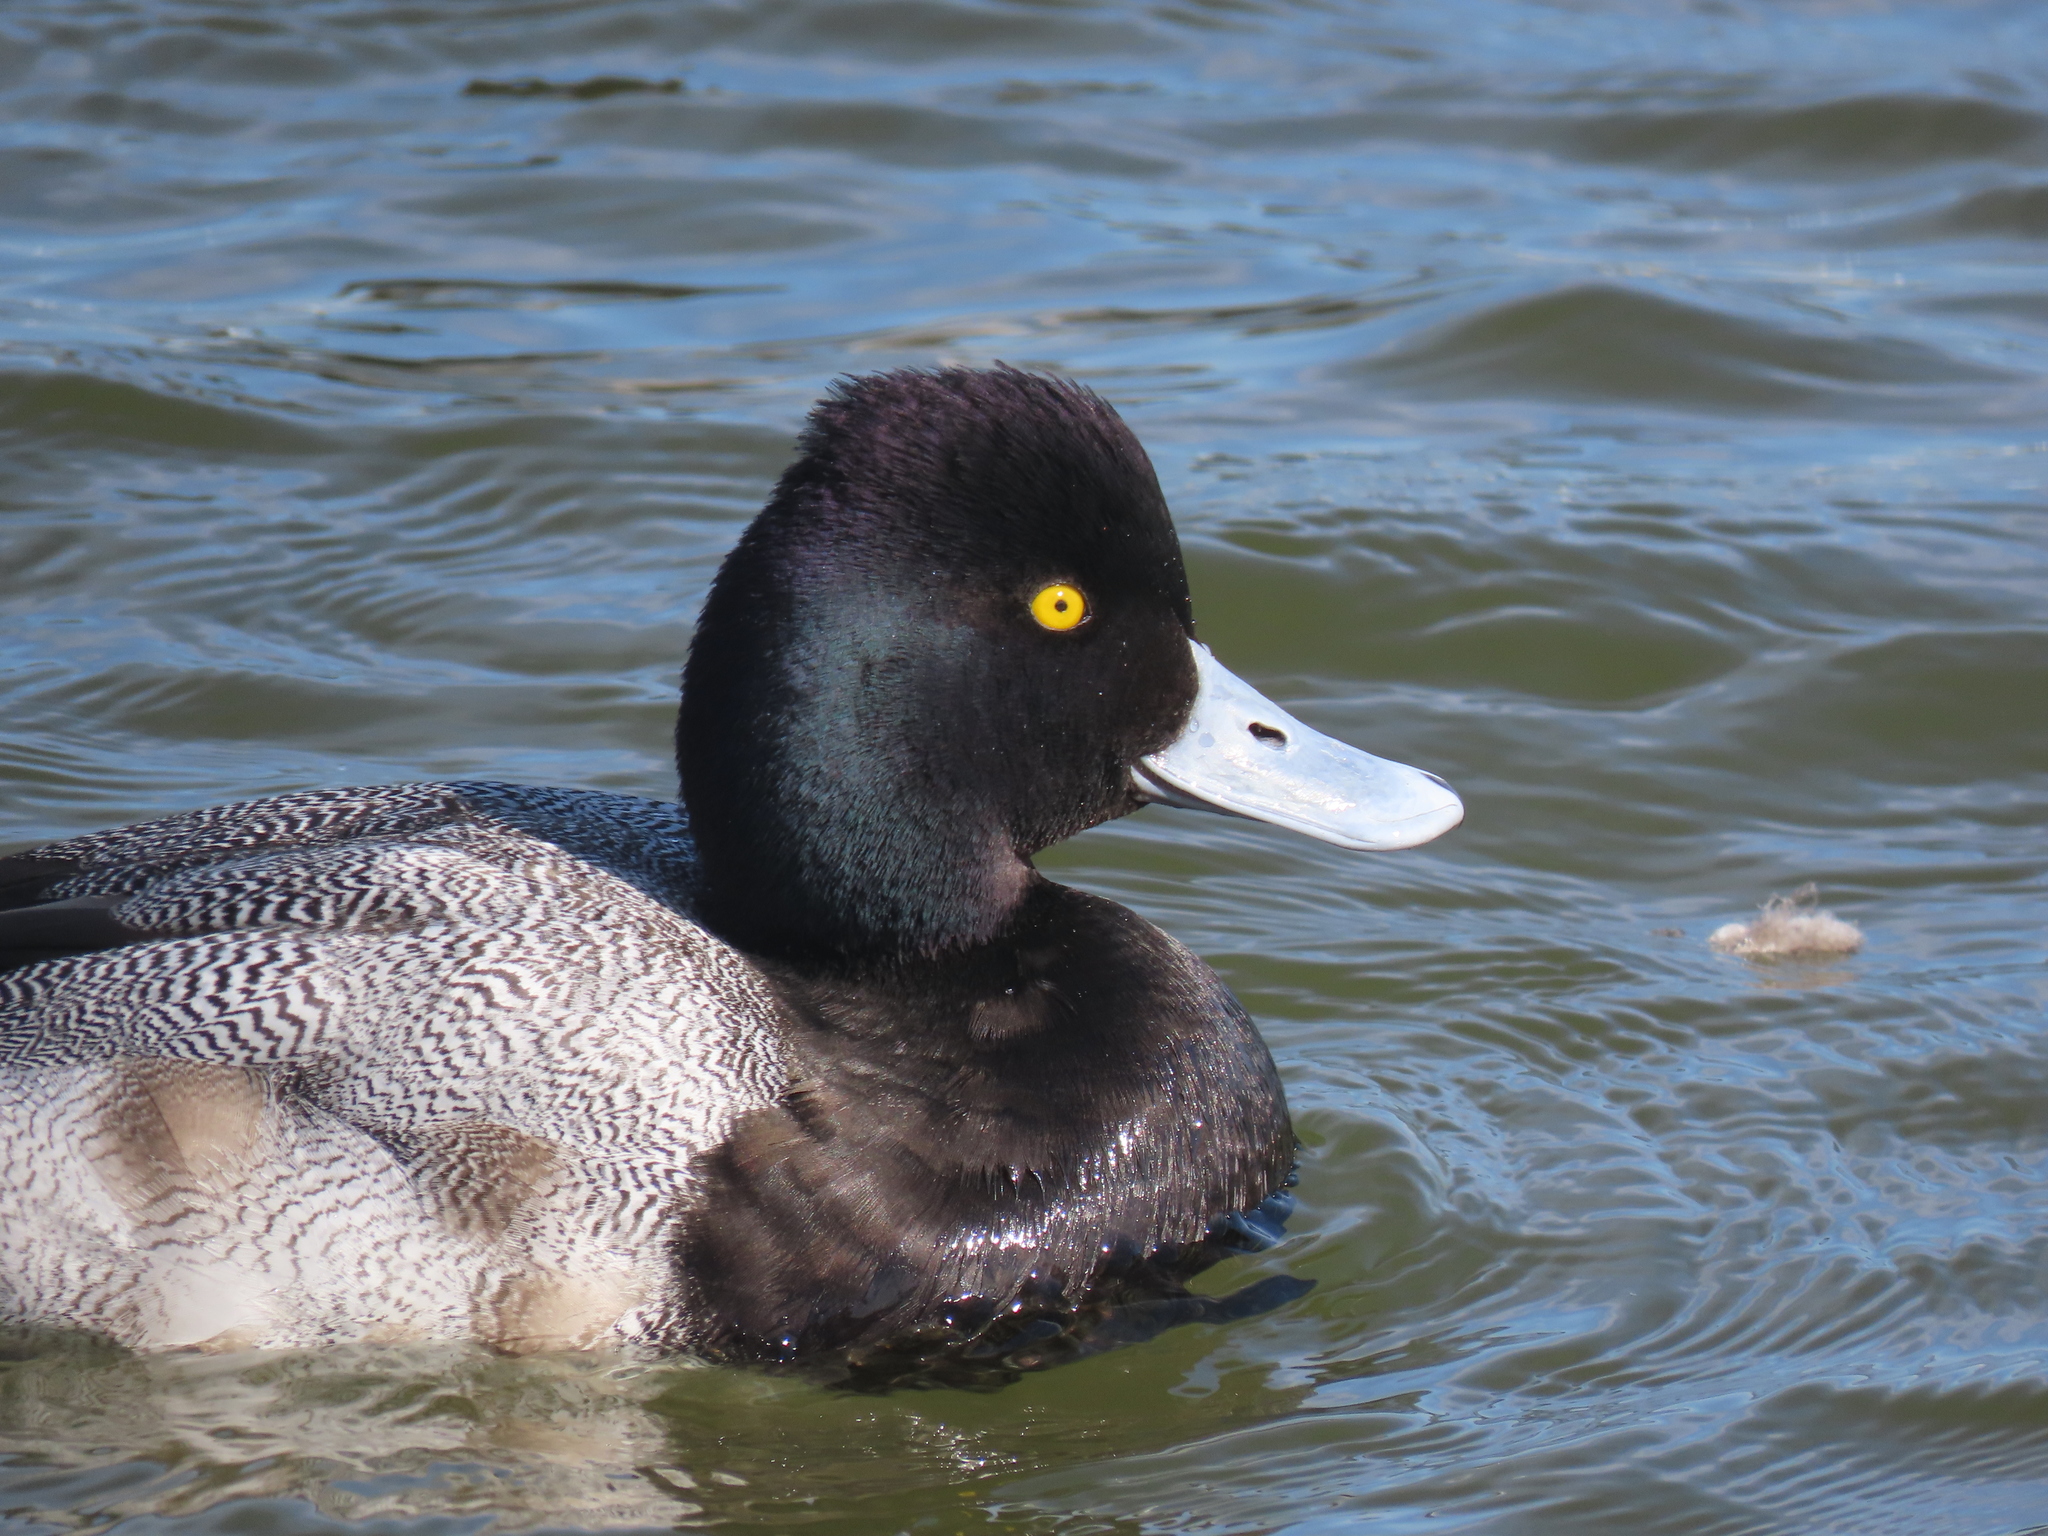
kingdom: Animalia
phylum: Chordata
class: Aves
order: Anseriformes
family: Anatidae
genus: Aythya
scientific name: Aythya affinis
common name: Lesser scaup
